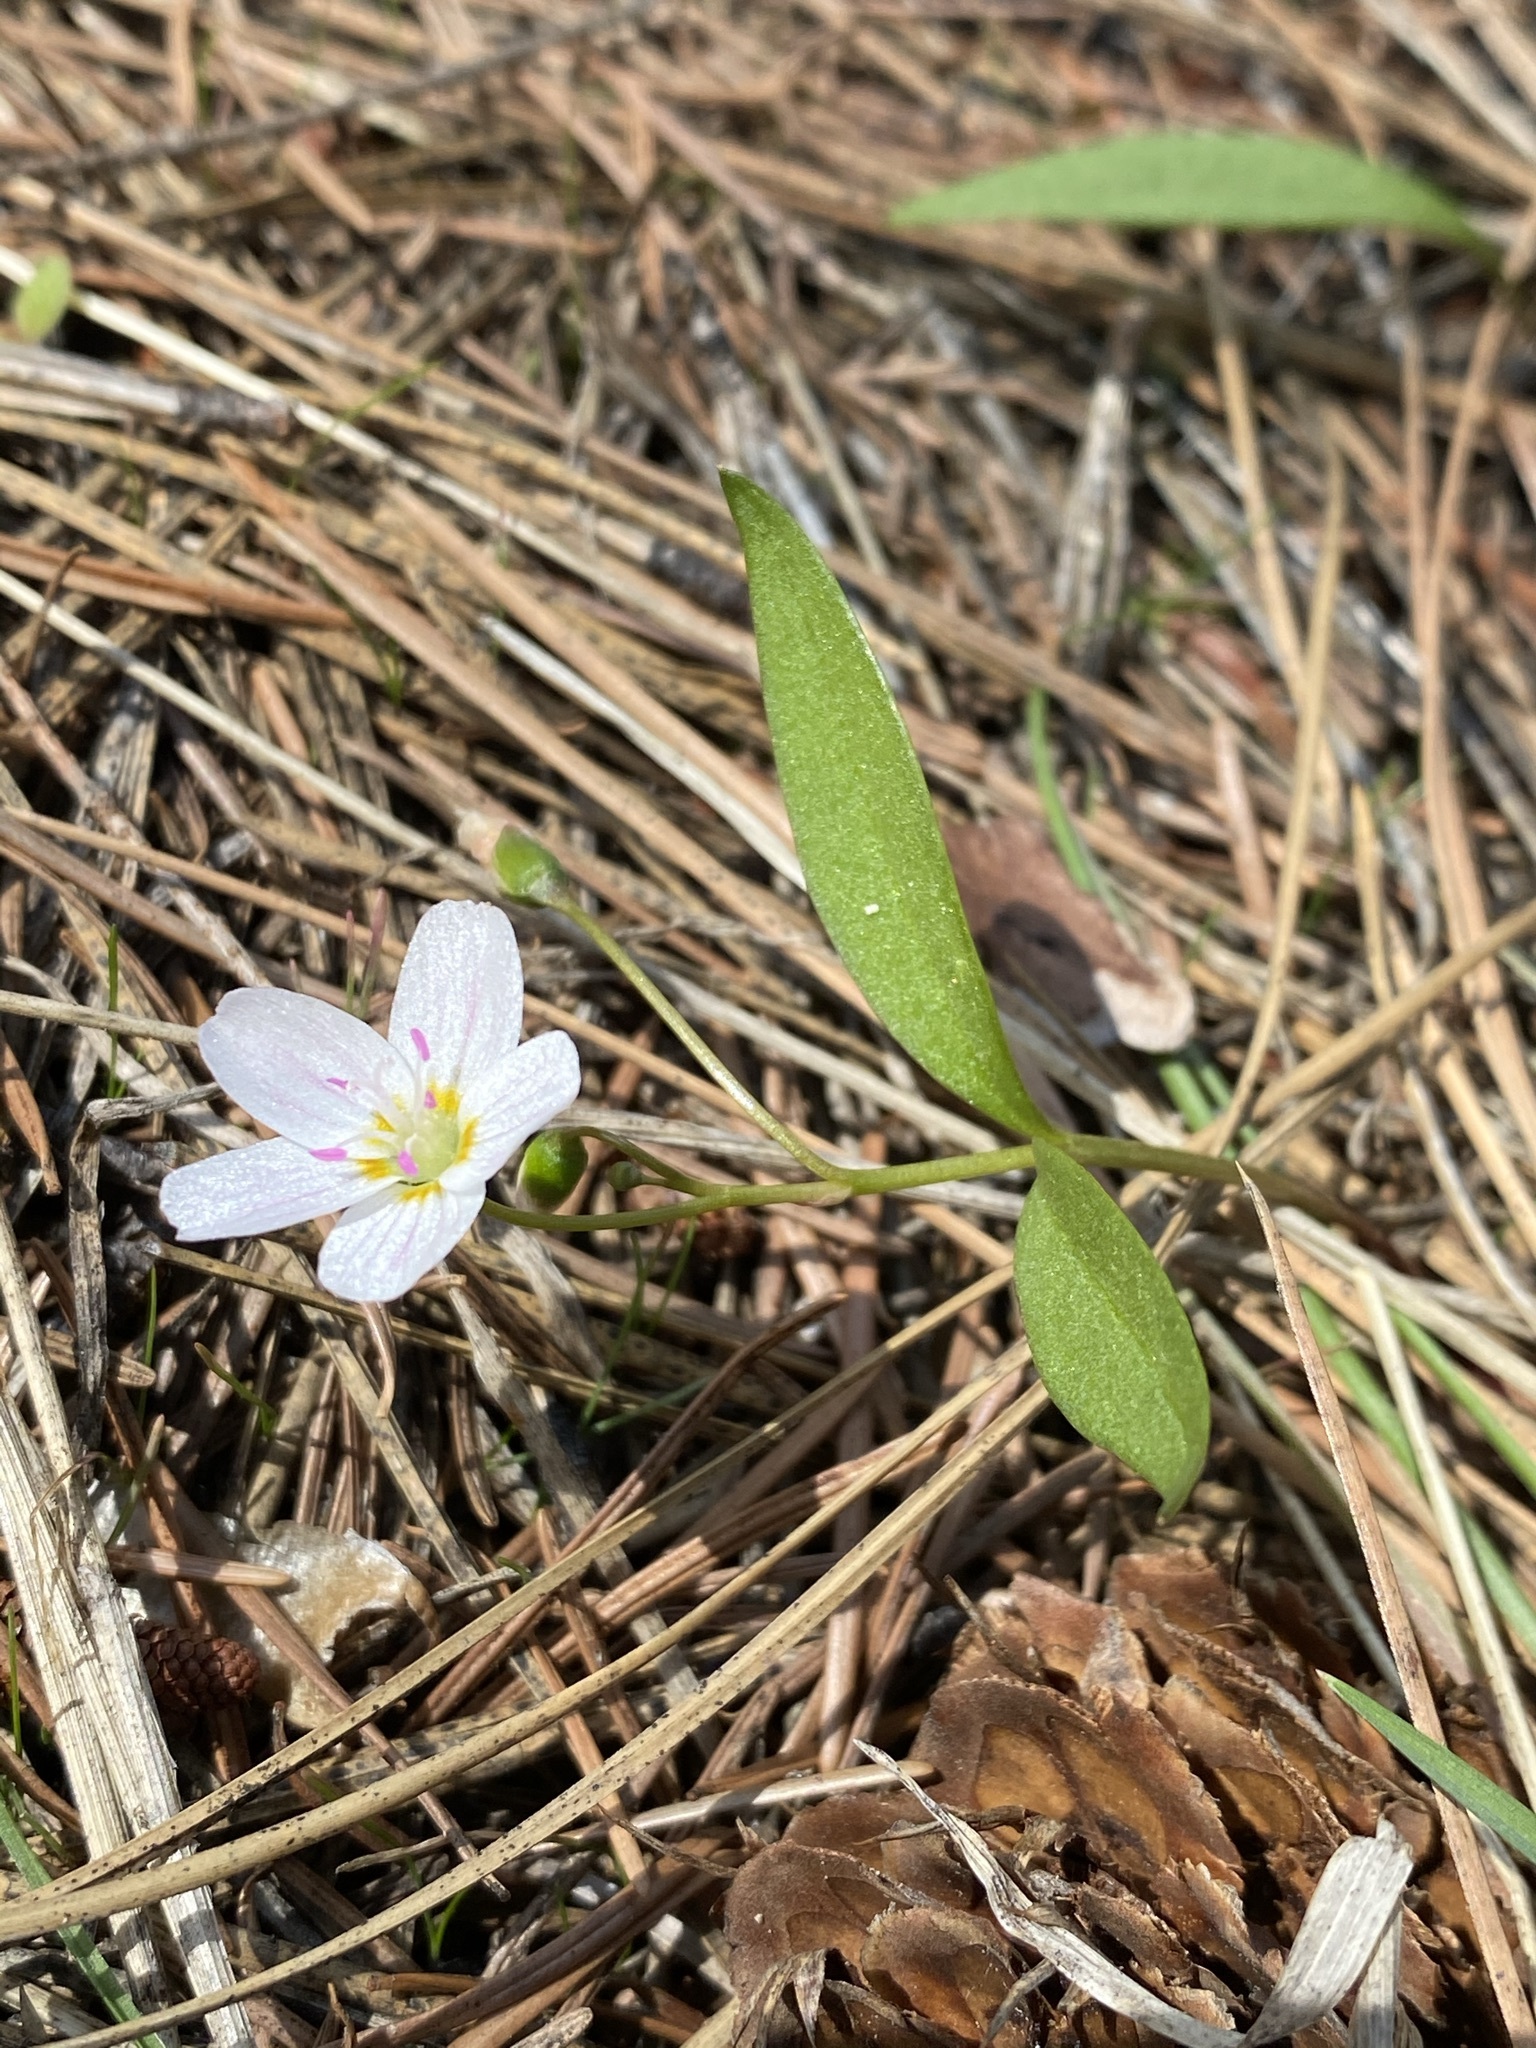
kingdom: Plantae
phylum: Tracheophyta
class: Magnoliopsida
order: Caryophyllales
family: Montiaceae
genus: Claytonia
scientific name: Claytonia lanceolata
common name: Western spring-beauty
